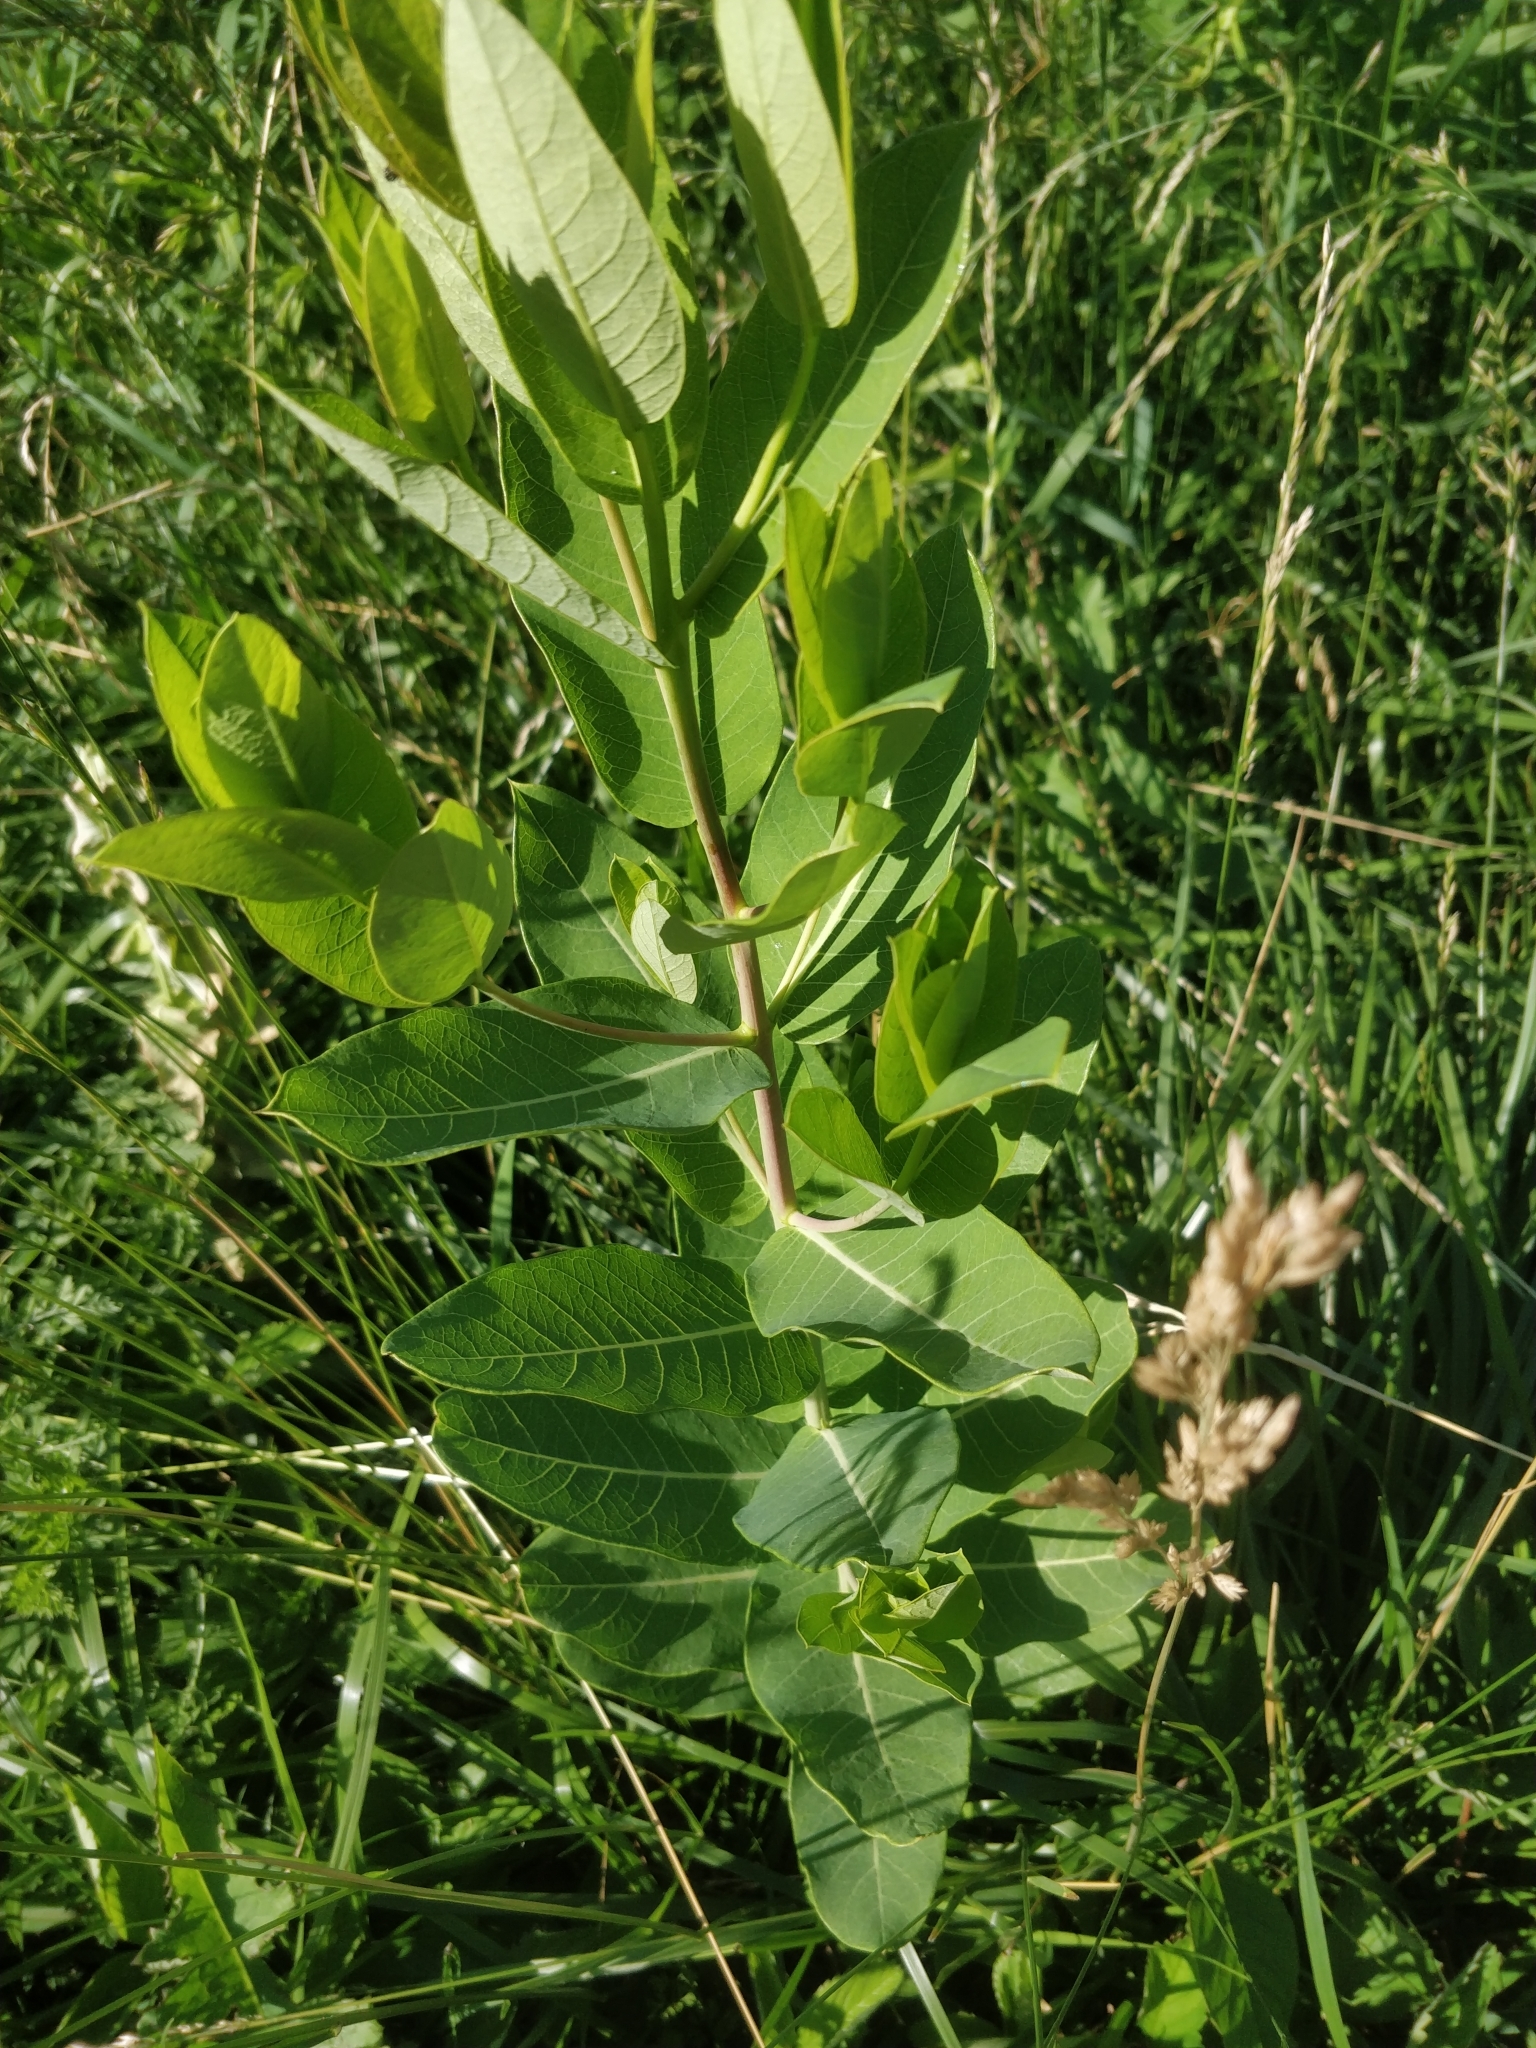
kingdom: Plantae
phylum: Tracheophyta
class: Magnoliopsida
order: Gentianales
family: Apocynaceae
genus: Apocynum
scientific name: Apocynum cannabinum
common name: Hemp dogbane
